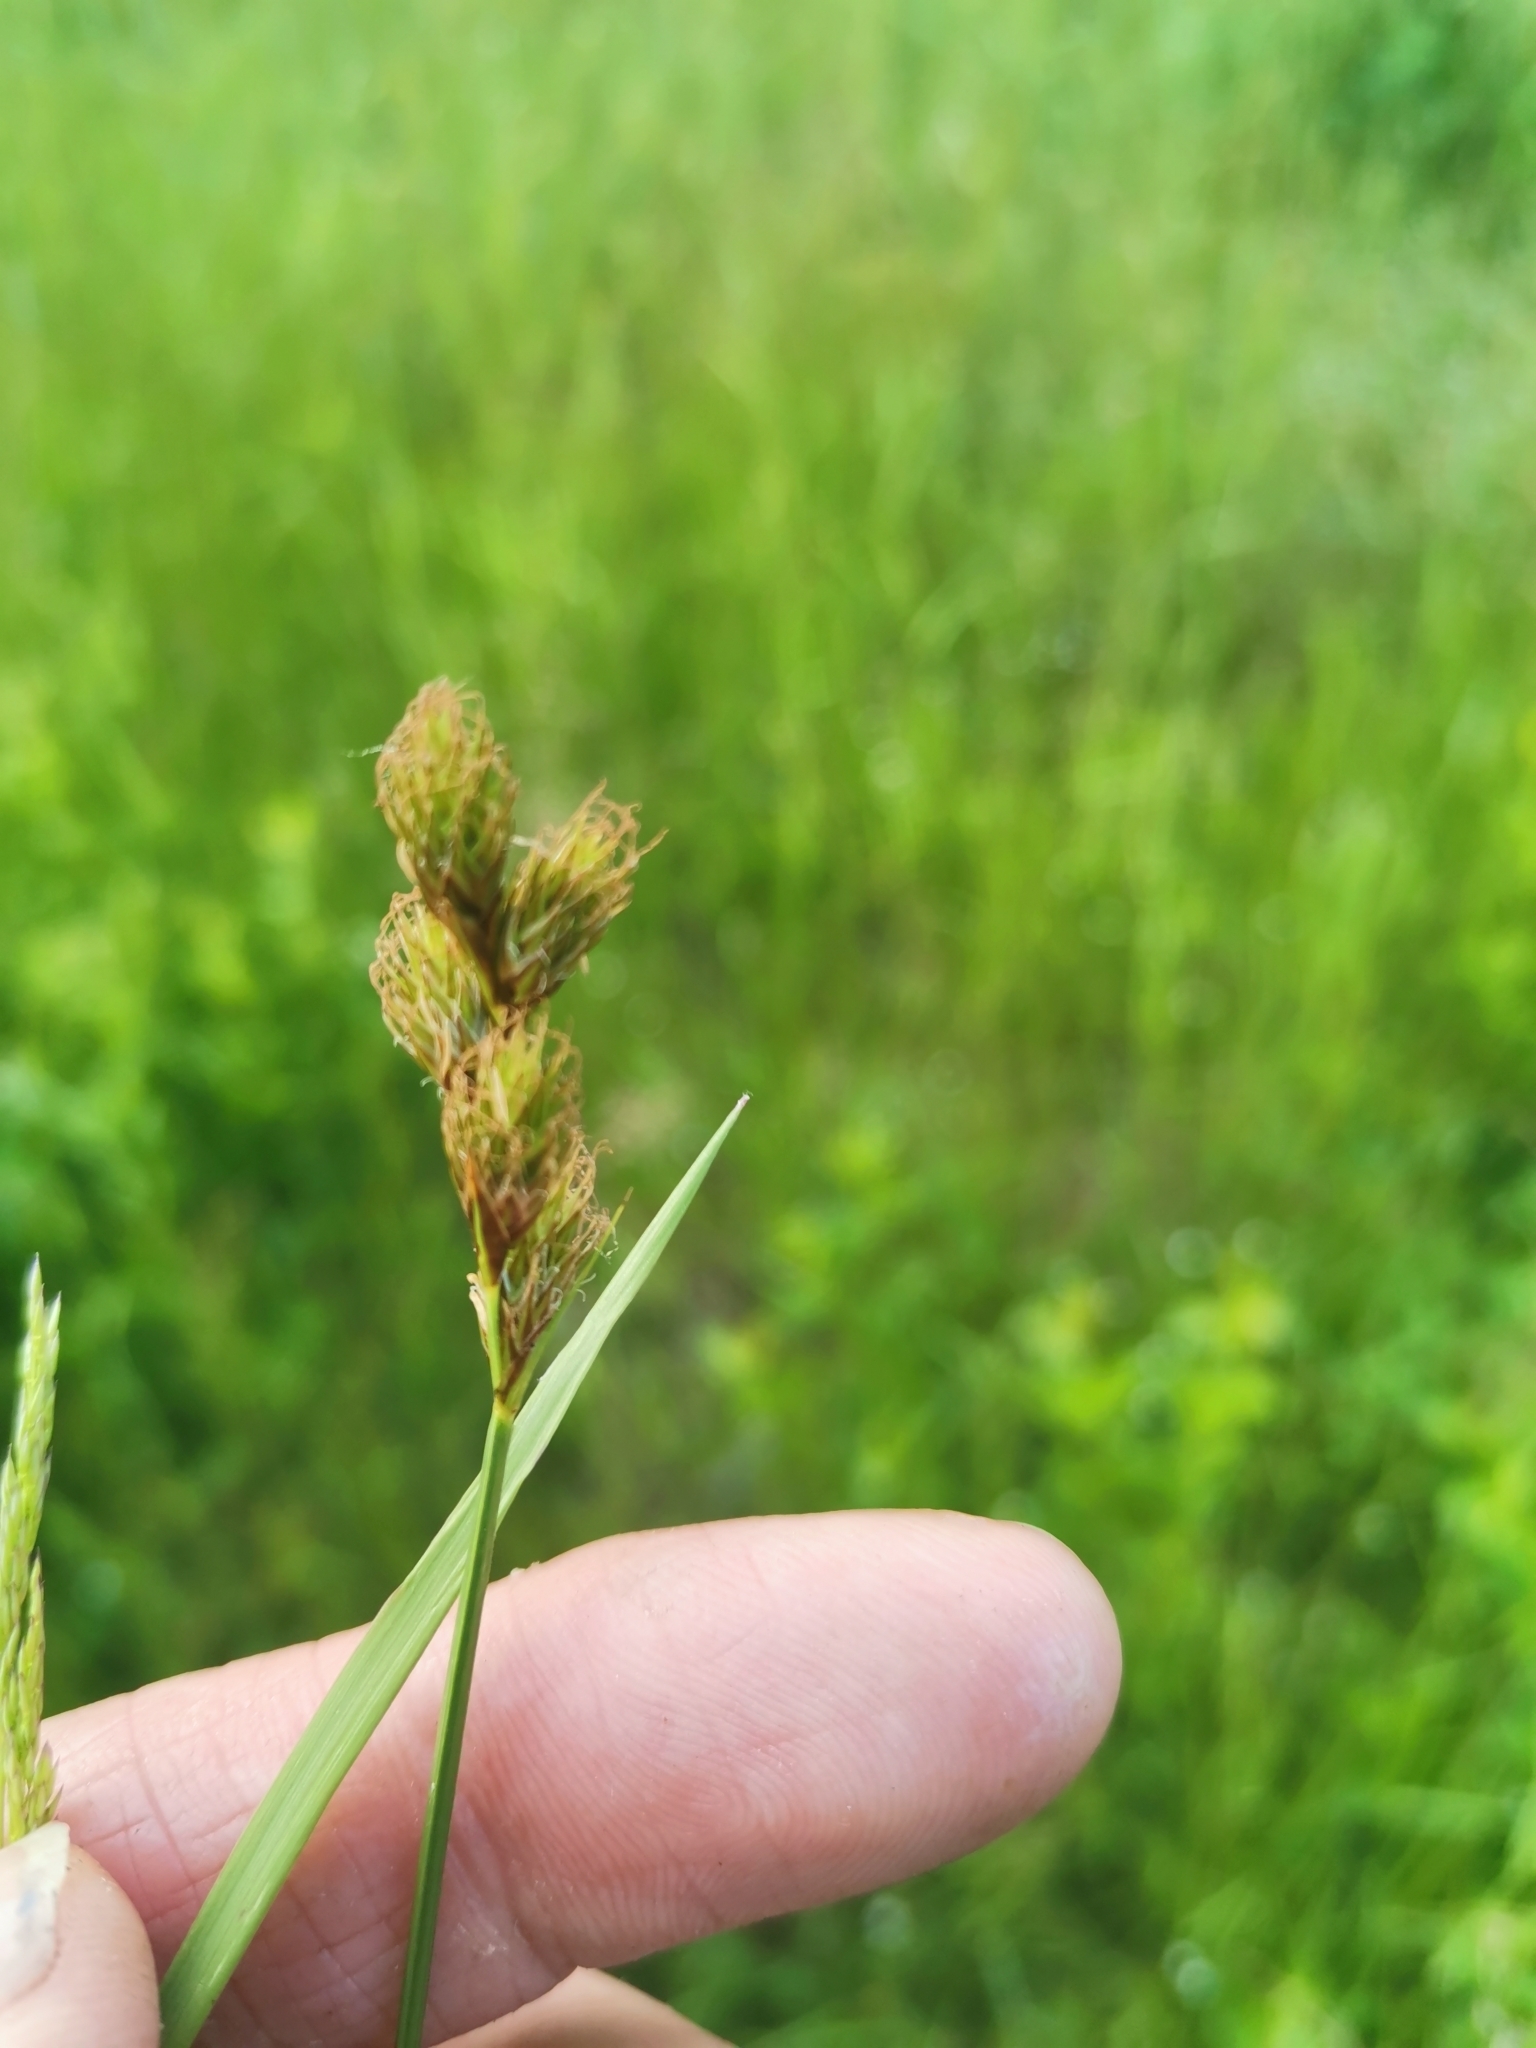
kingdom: Plantae
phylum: Tracheophyta
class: Liliopsida
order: Poales
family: Cyperaceae
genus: Carex
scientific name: Carex leporina
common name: Oval sedge
